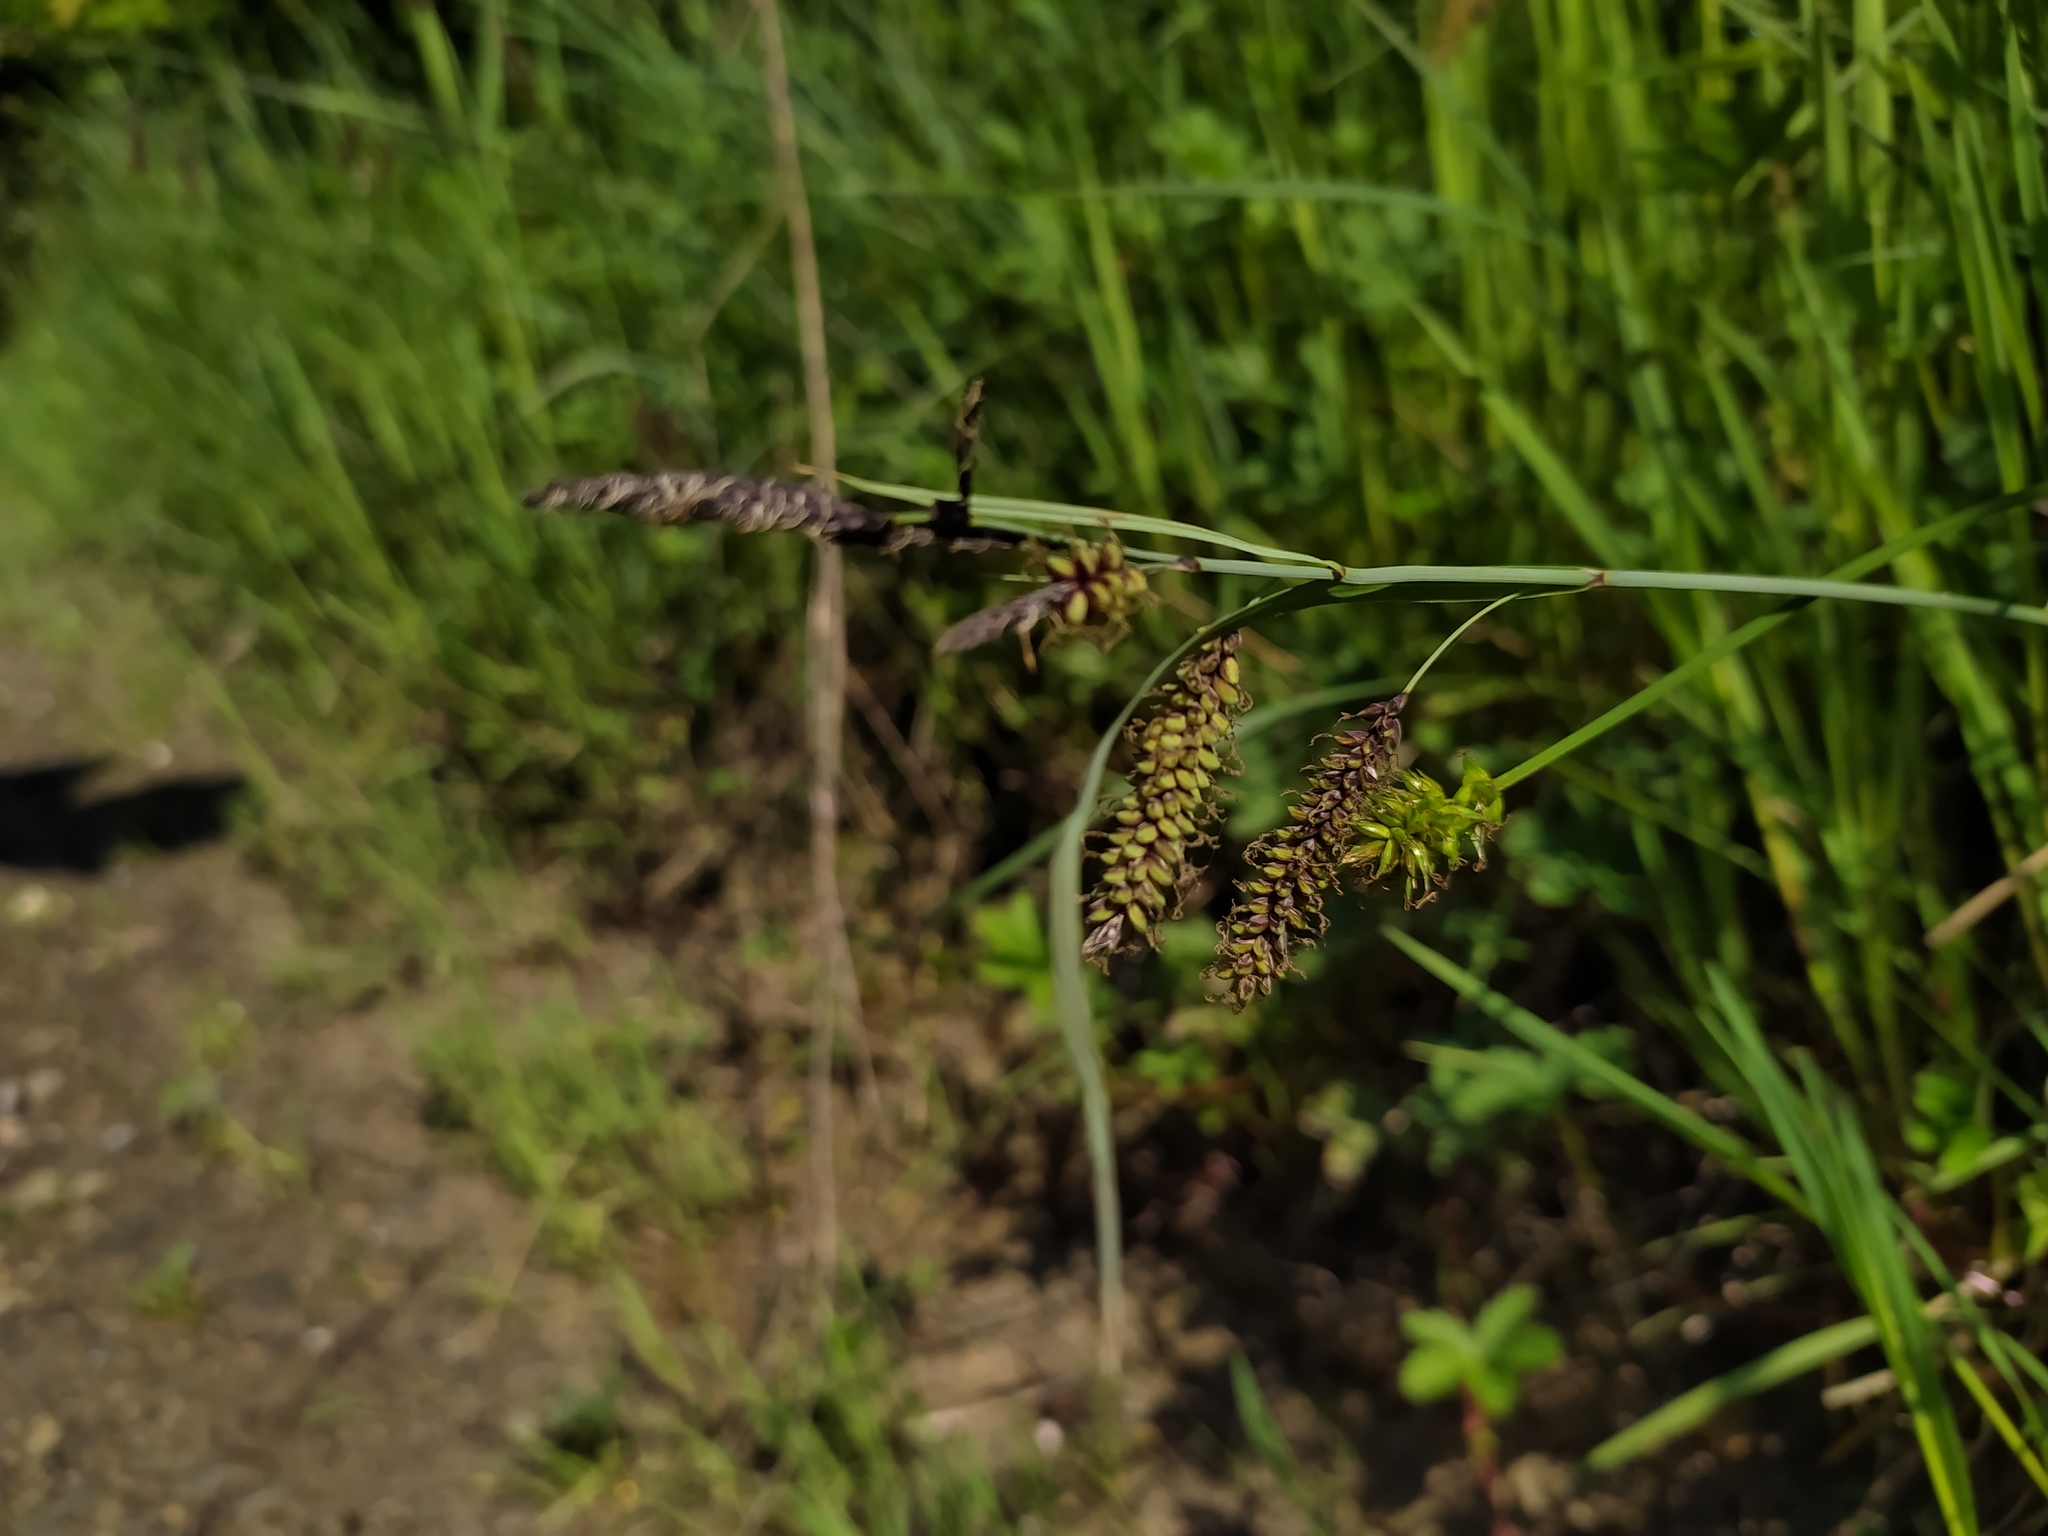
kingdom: Plantae
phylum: Tracheophyta
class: Liliopsida
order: Poales
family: Cyperaceae
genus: Carex
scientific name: Carex flacca
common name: Glaucous sedge
